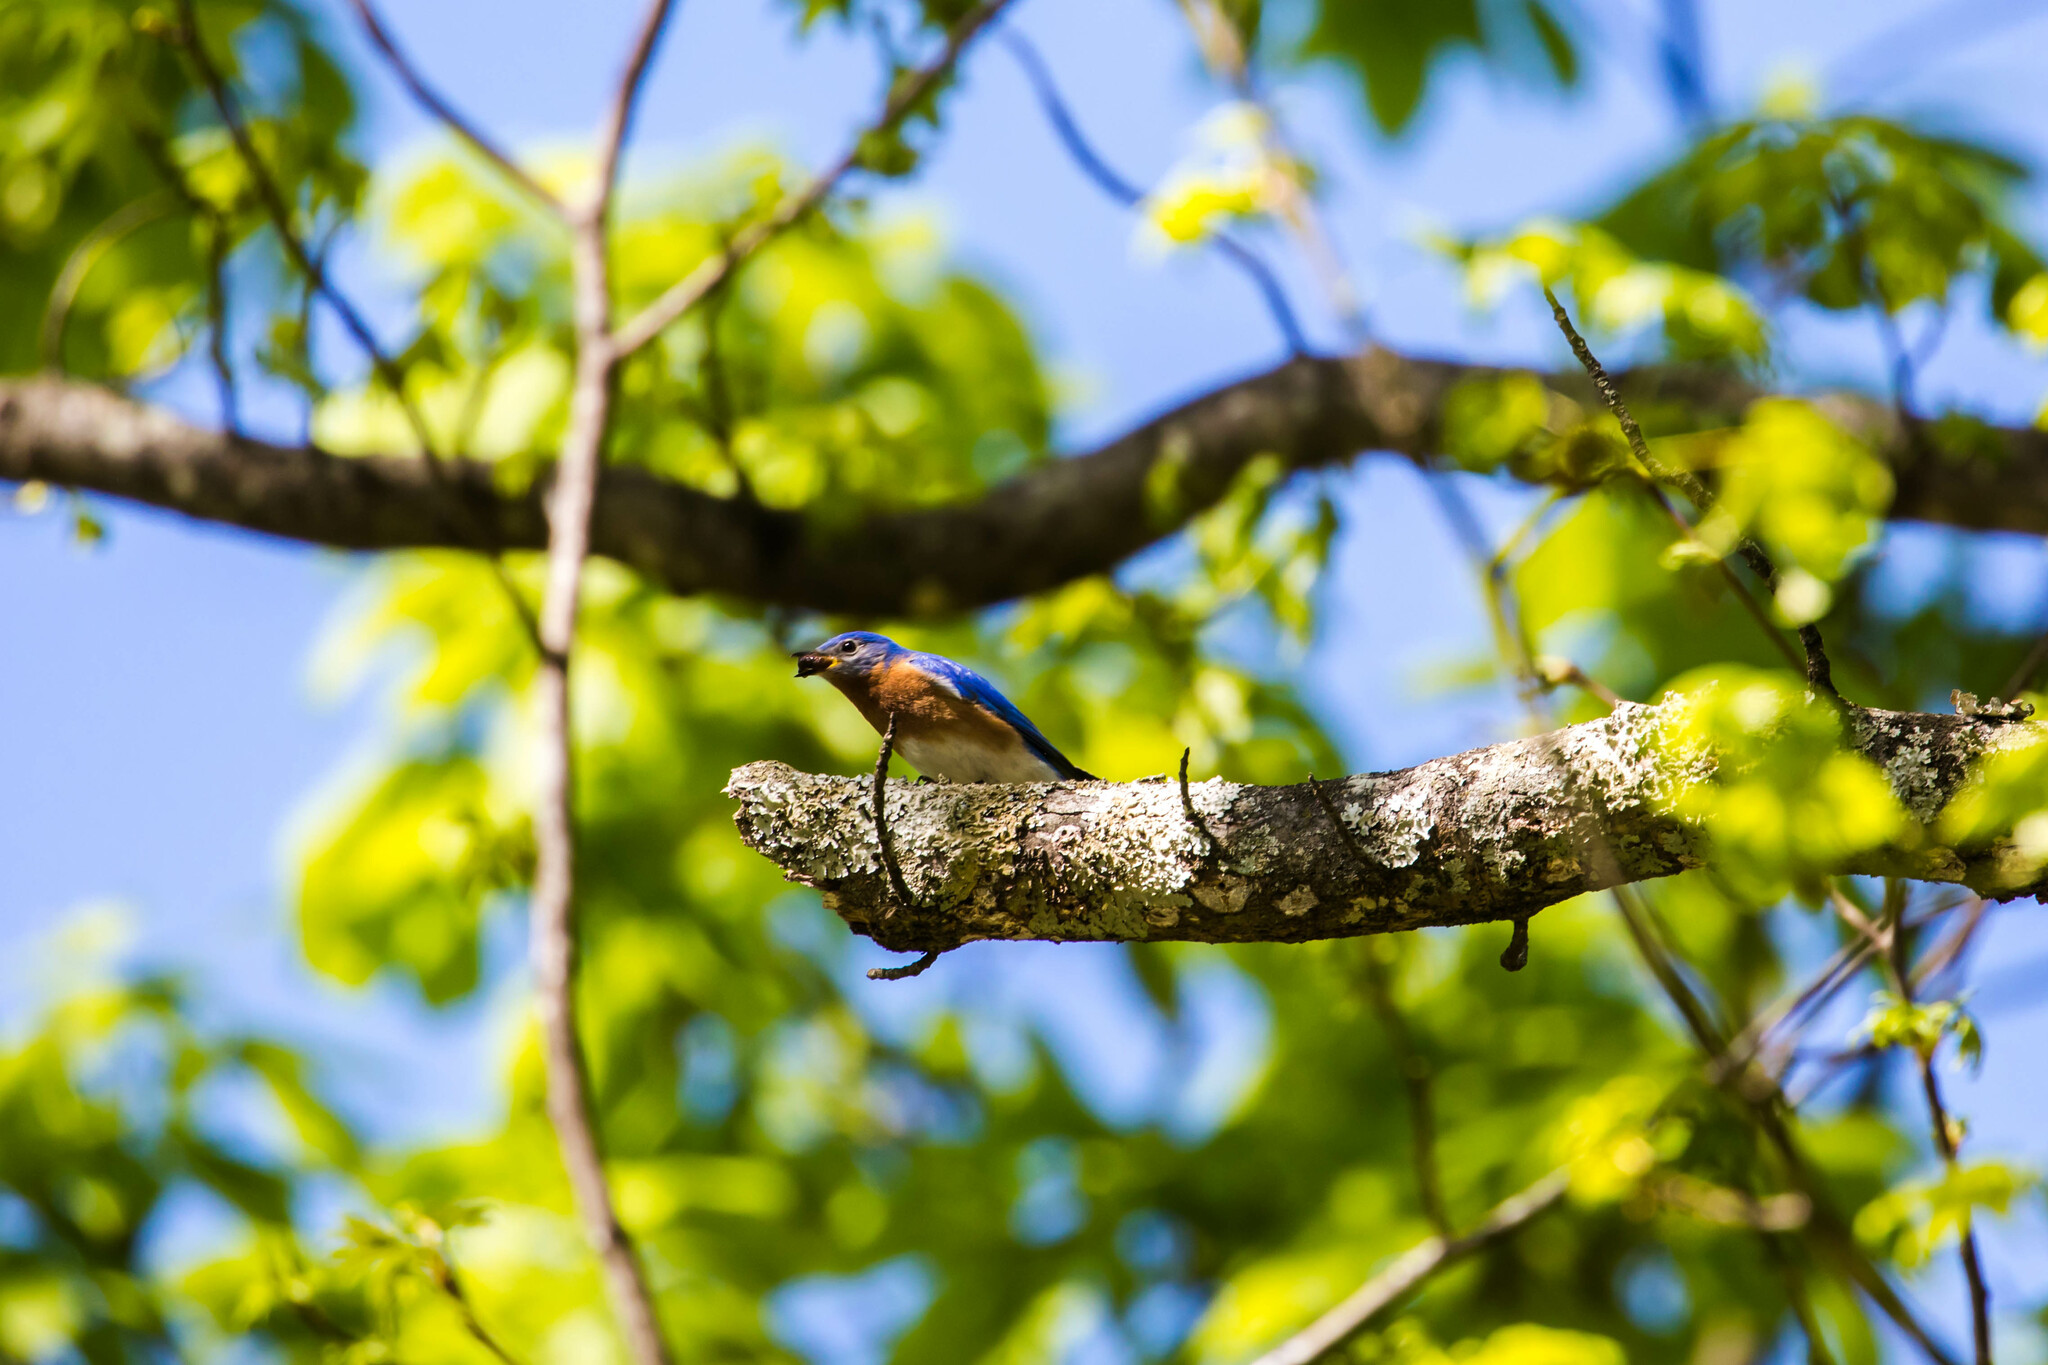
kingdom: Animalia
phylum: Chordata
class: Aves
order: Passeriformes
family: Turdidae
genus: Sialia
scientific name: Sialia sialis
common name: Eastern bluebird
